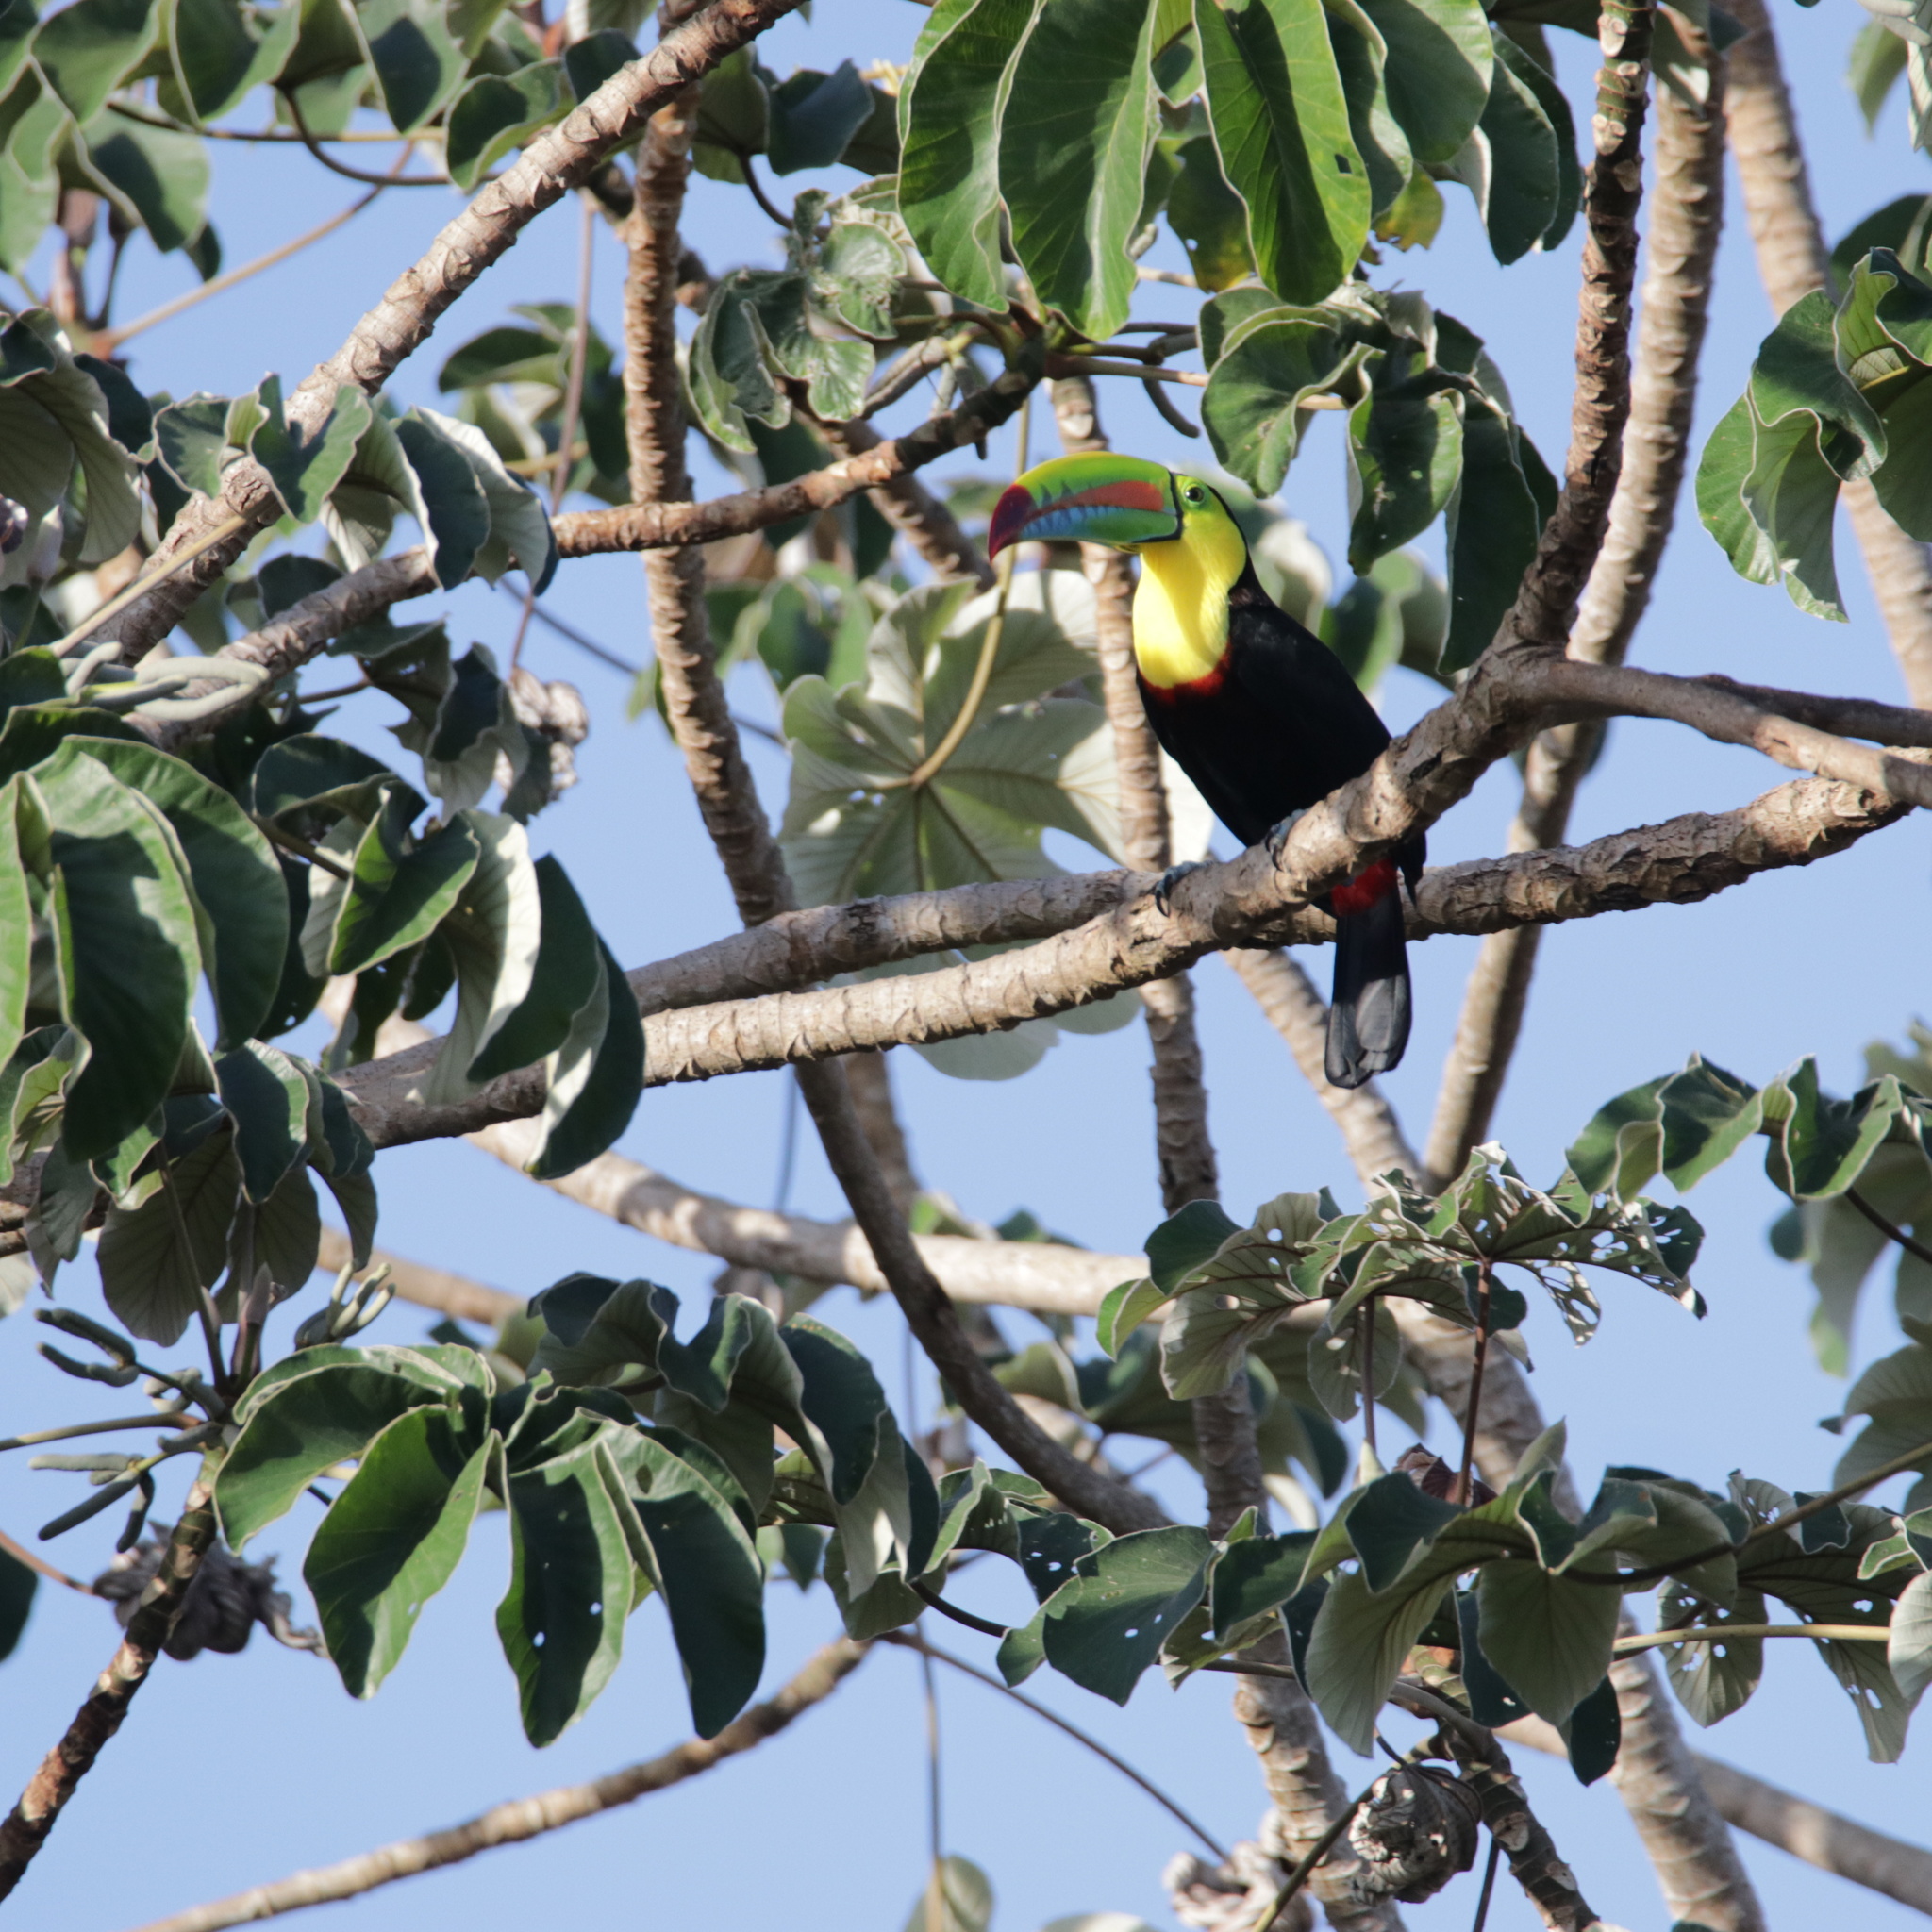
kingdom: Animalia
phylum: Chordata
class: Aves
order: Piciformes
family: Ramphastidae
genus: Ramphastos
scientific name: Ramphastos sulfuratus
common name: Keel-billed toucan
